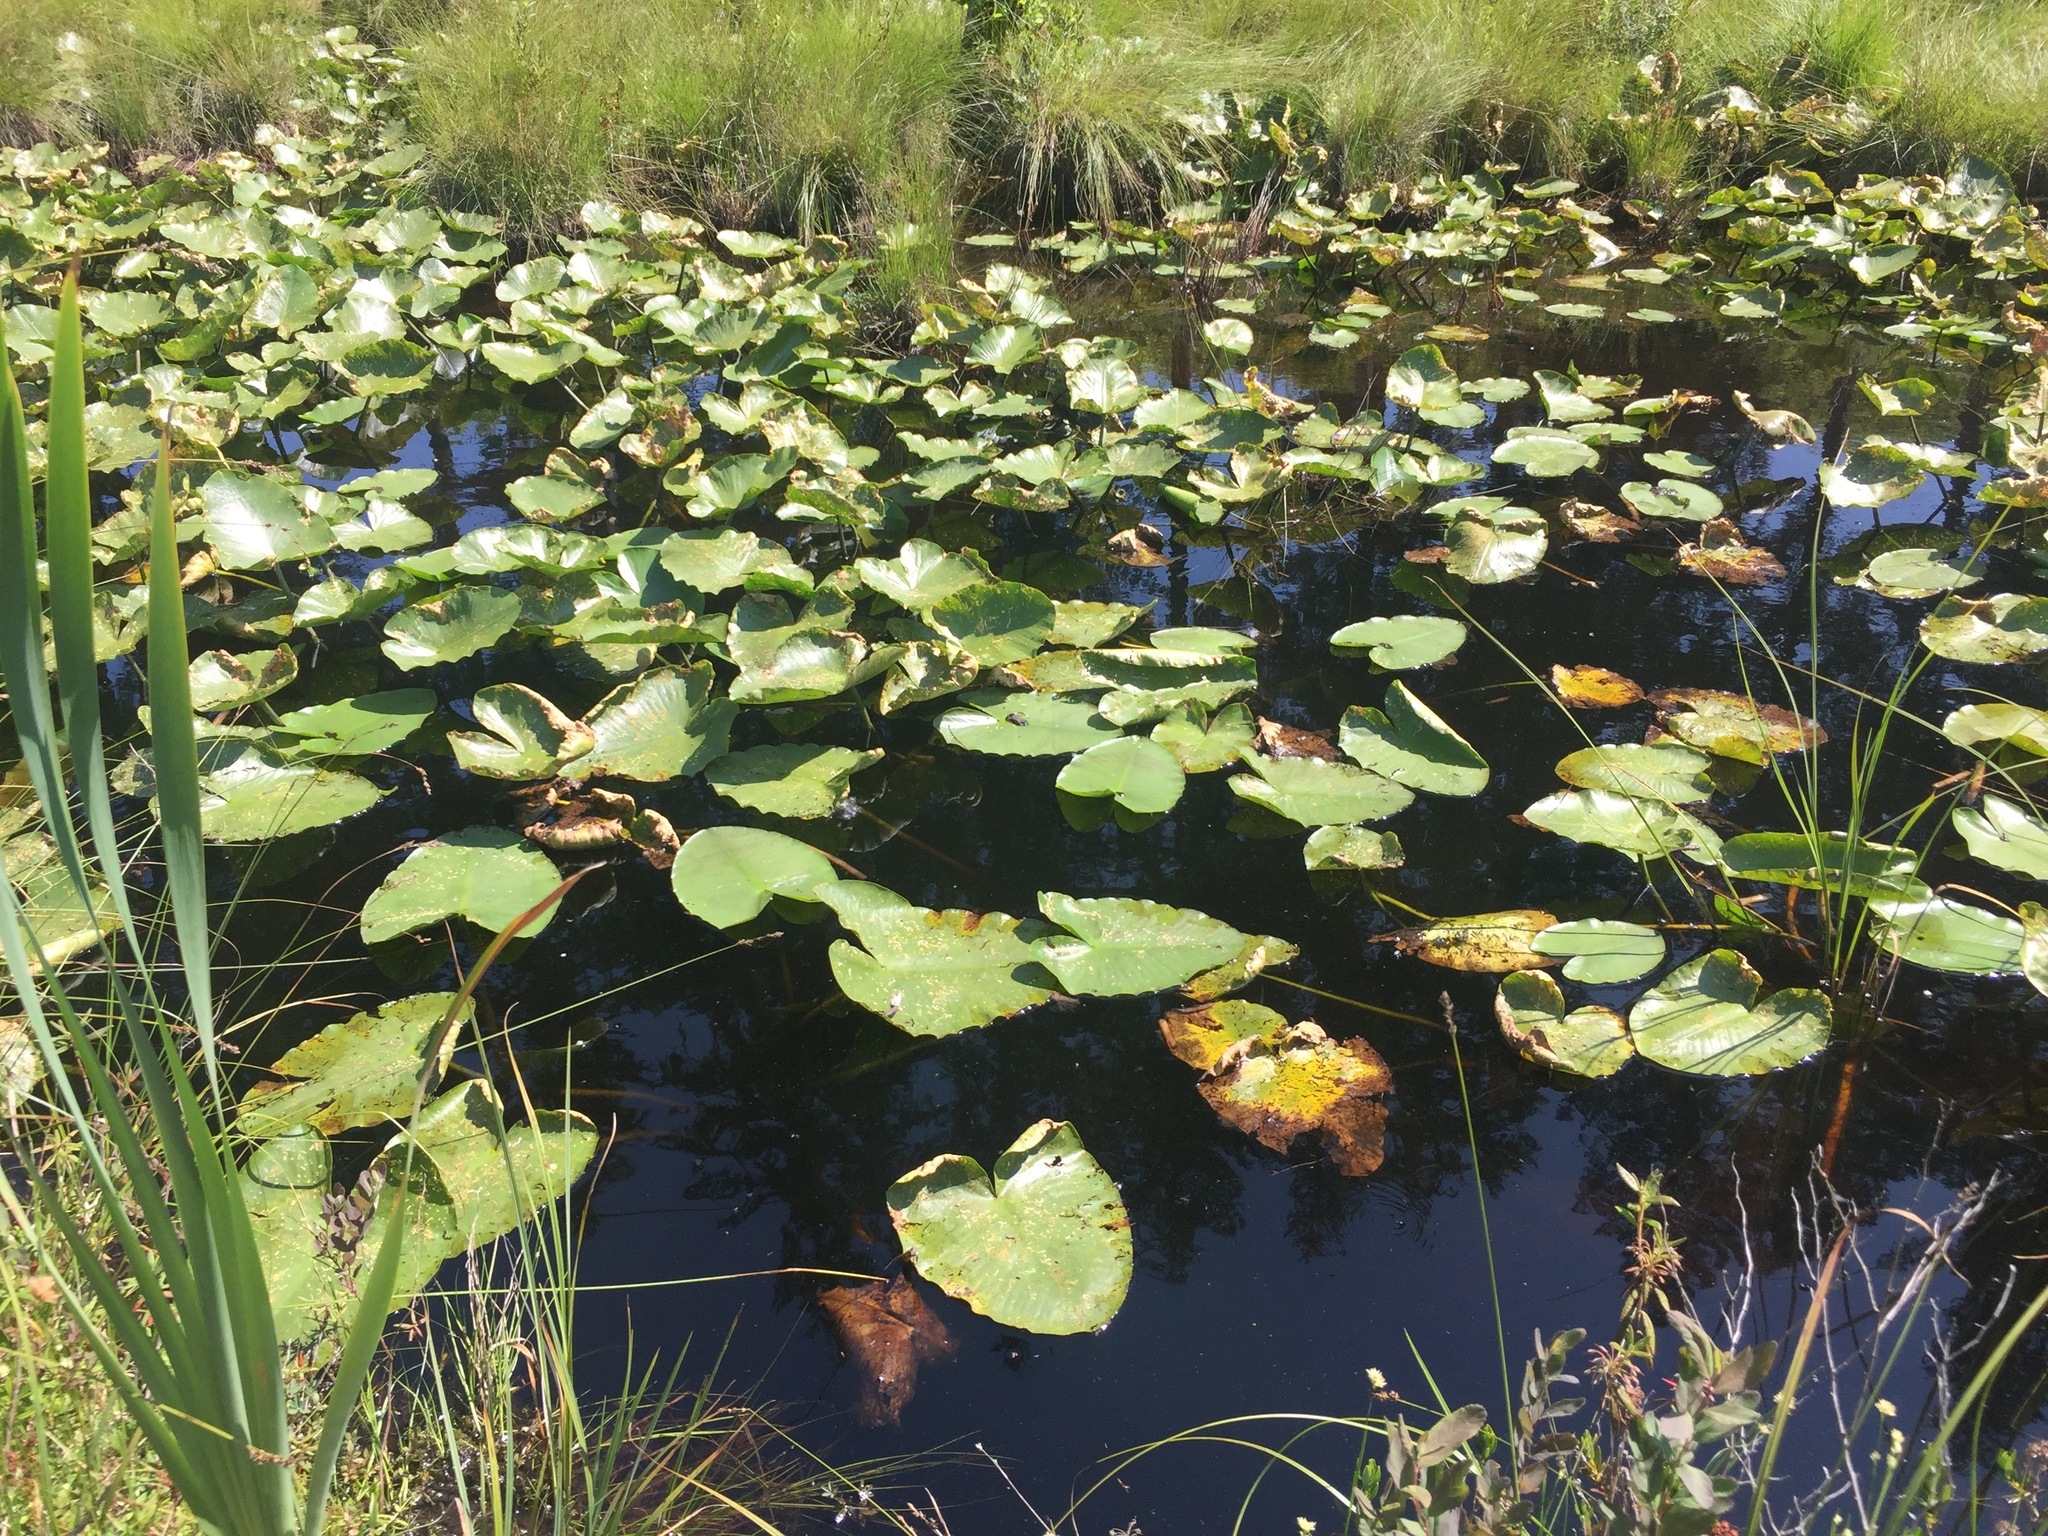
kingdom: Plantae
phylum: Tracheophyta
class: Magnoliopsida
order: Nymphaeales
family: Nymphaeaceae
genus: Nuphar
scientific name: Nuphar polysepala
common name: Rocky mountain cow-lily
